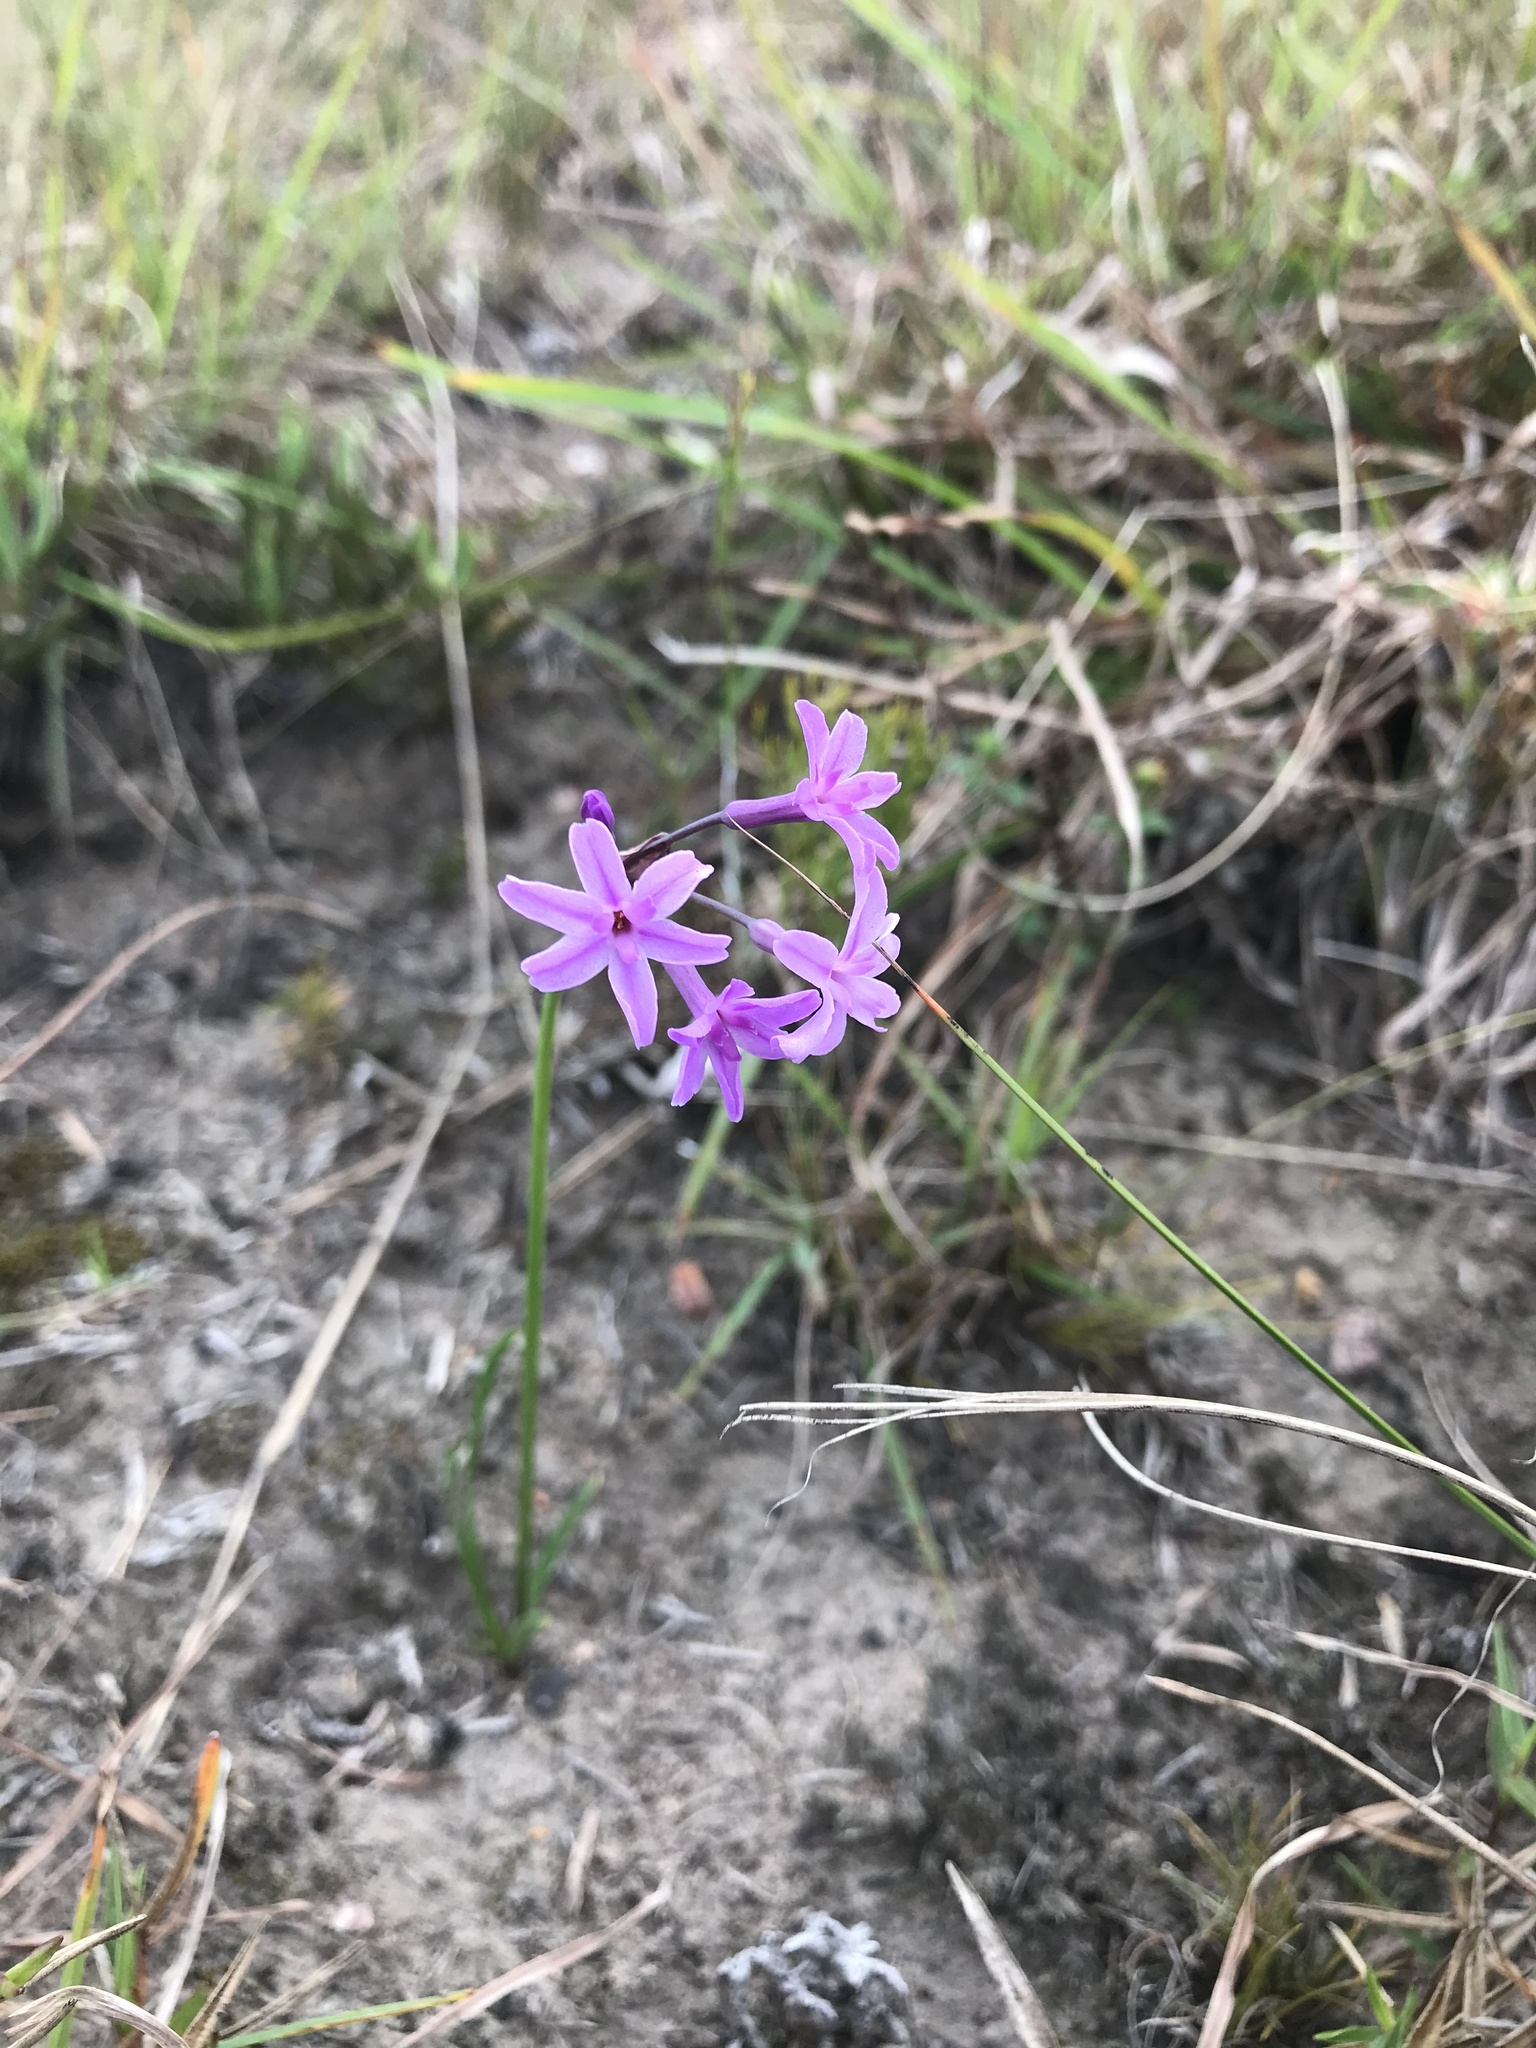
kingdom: Plantae
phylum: Tracheophyta
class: Liliopsida
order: Asparagales
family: Amaryllidaceae
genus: Tulbaghia
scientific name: Tulbaghia violacea
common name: Society garlic
